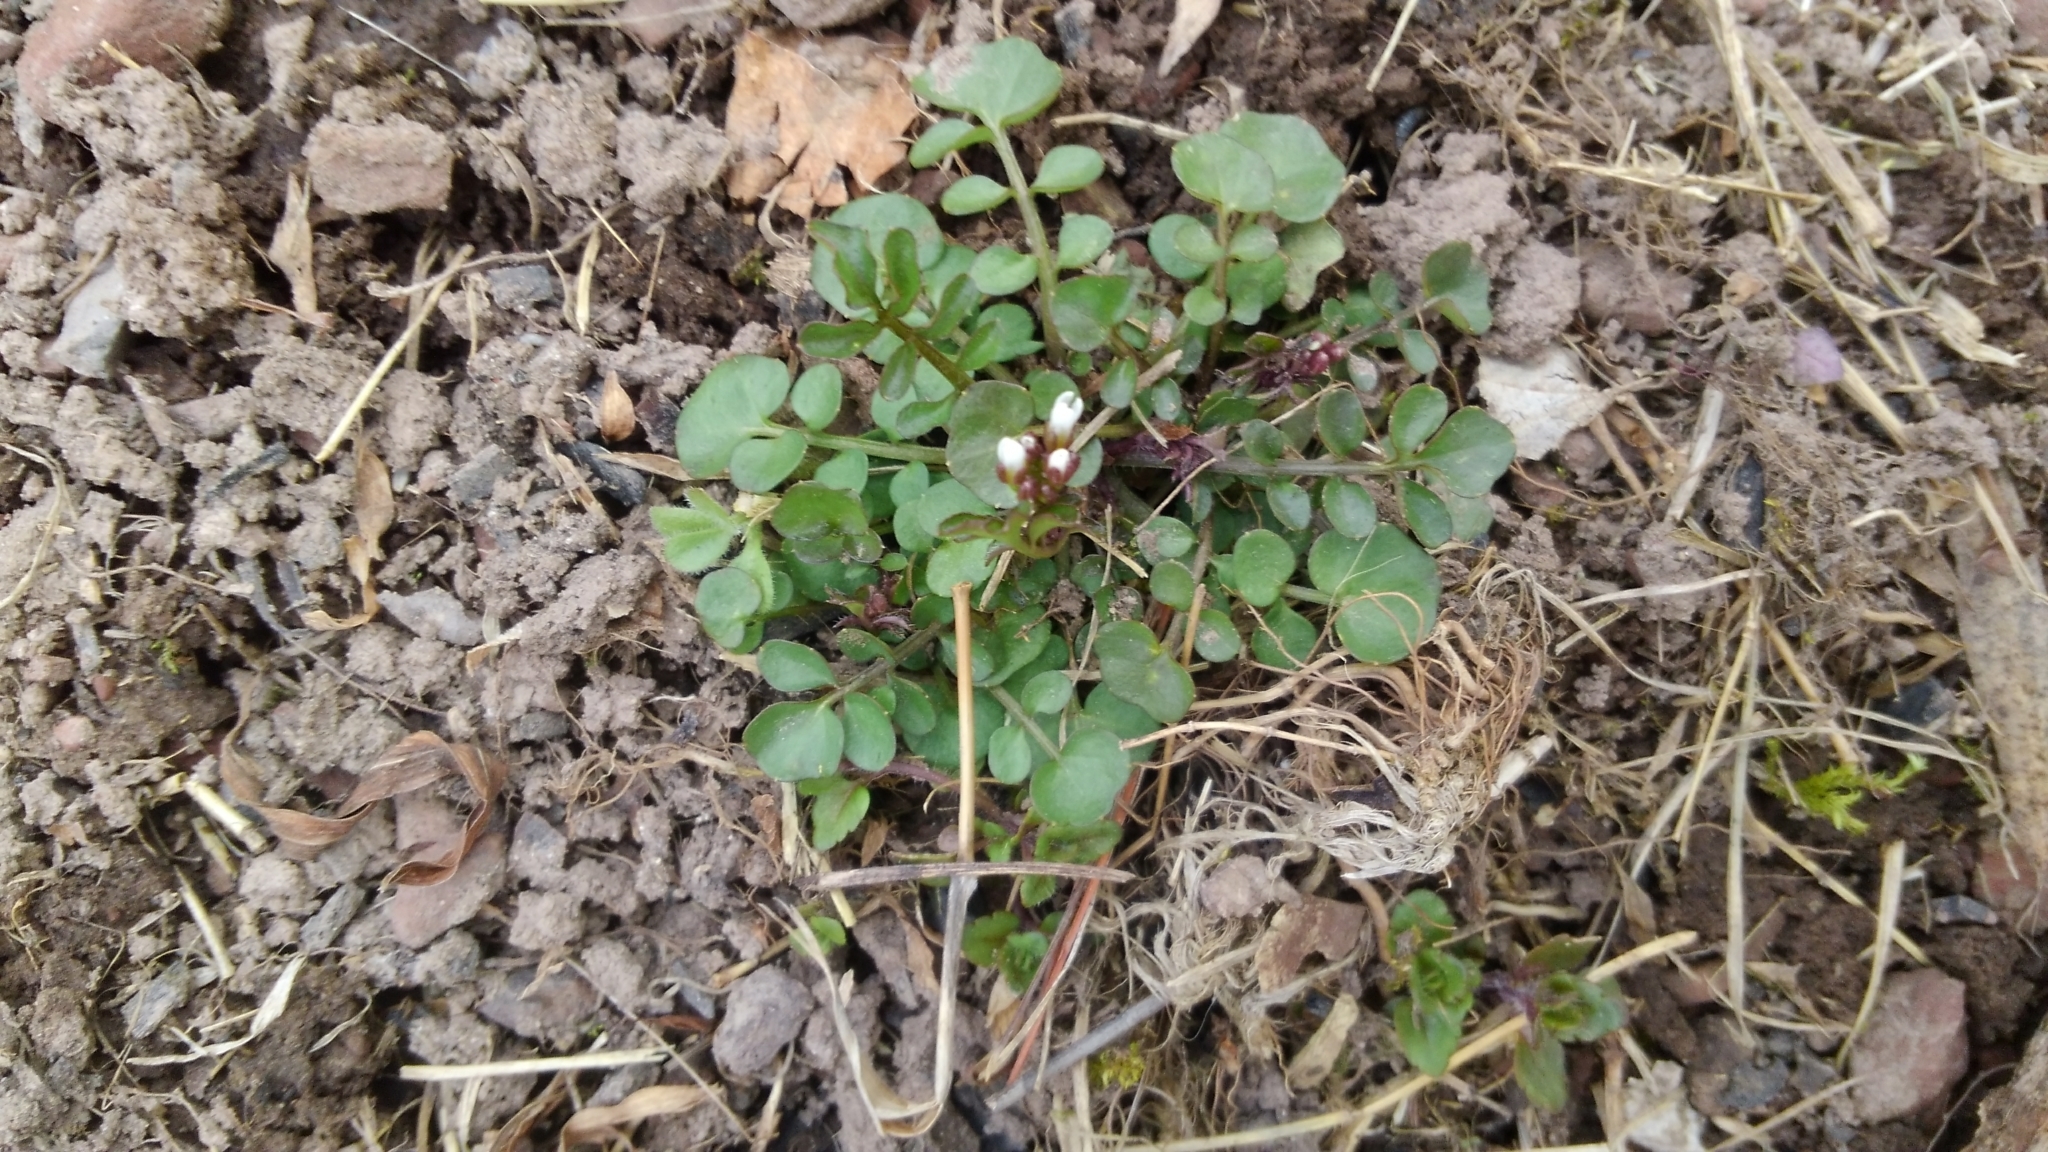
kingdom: Plantae
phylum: Tracheophyta
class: Magnoliopsida
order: Brassicales
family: Brassicaceae
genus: Cardamine
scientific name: Cardamine hirsuta
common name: Hairy bittercress
